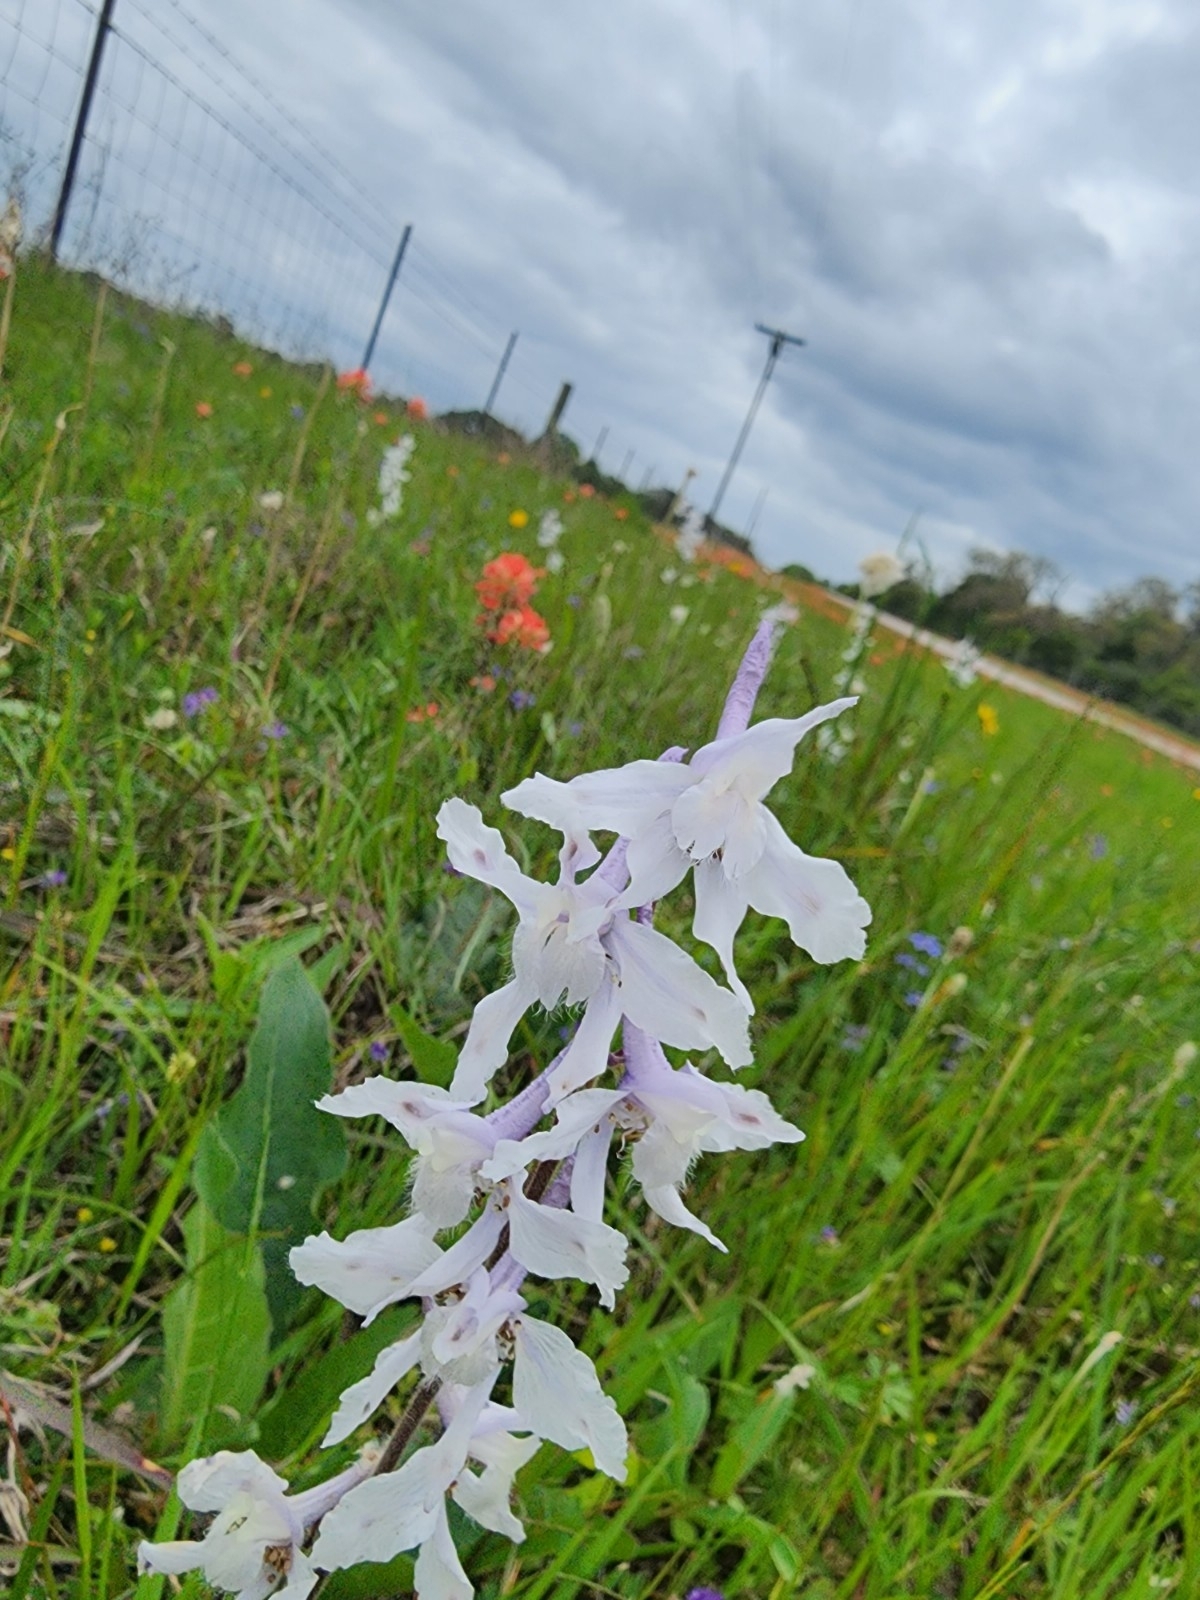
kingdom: Plantae
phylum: Tracheophyta
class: Magnoliopsida
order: Ranunculales
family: Ranunculaceae
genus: Delphinium
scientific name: Delphinium carolinianum
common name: Carolina larkspur
